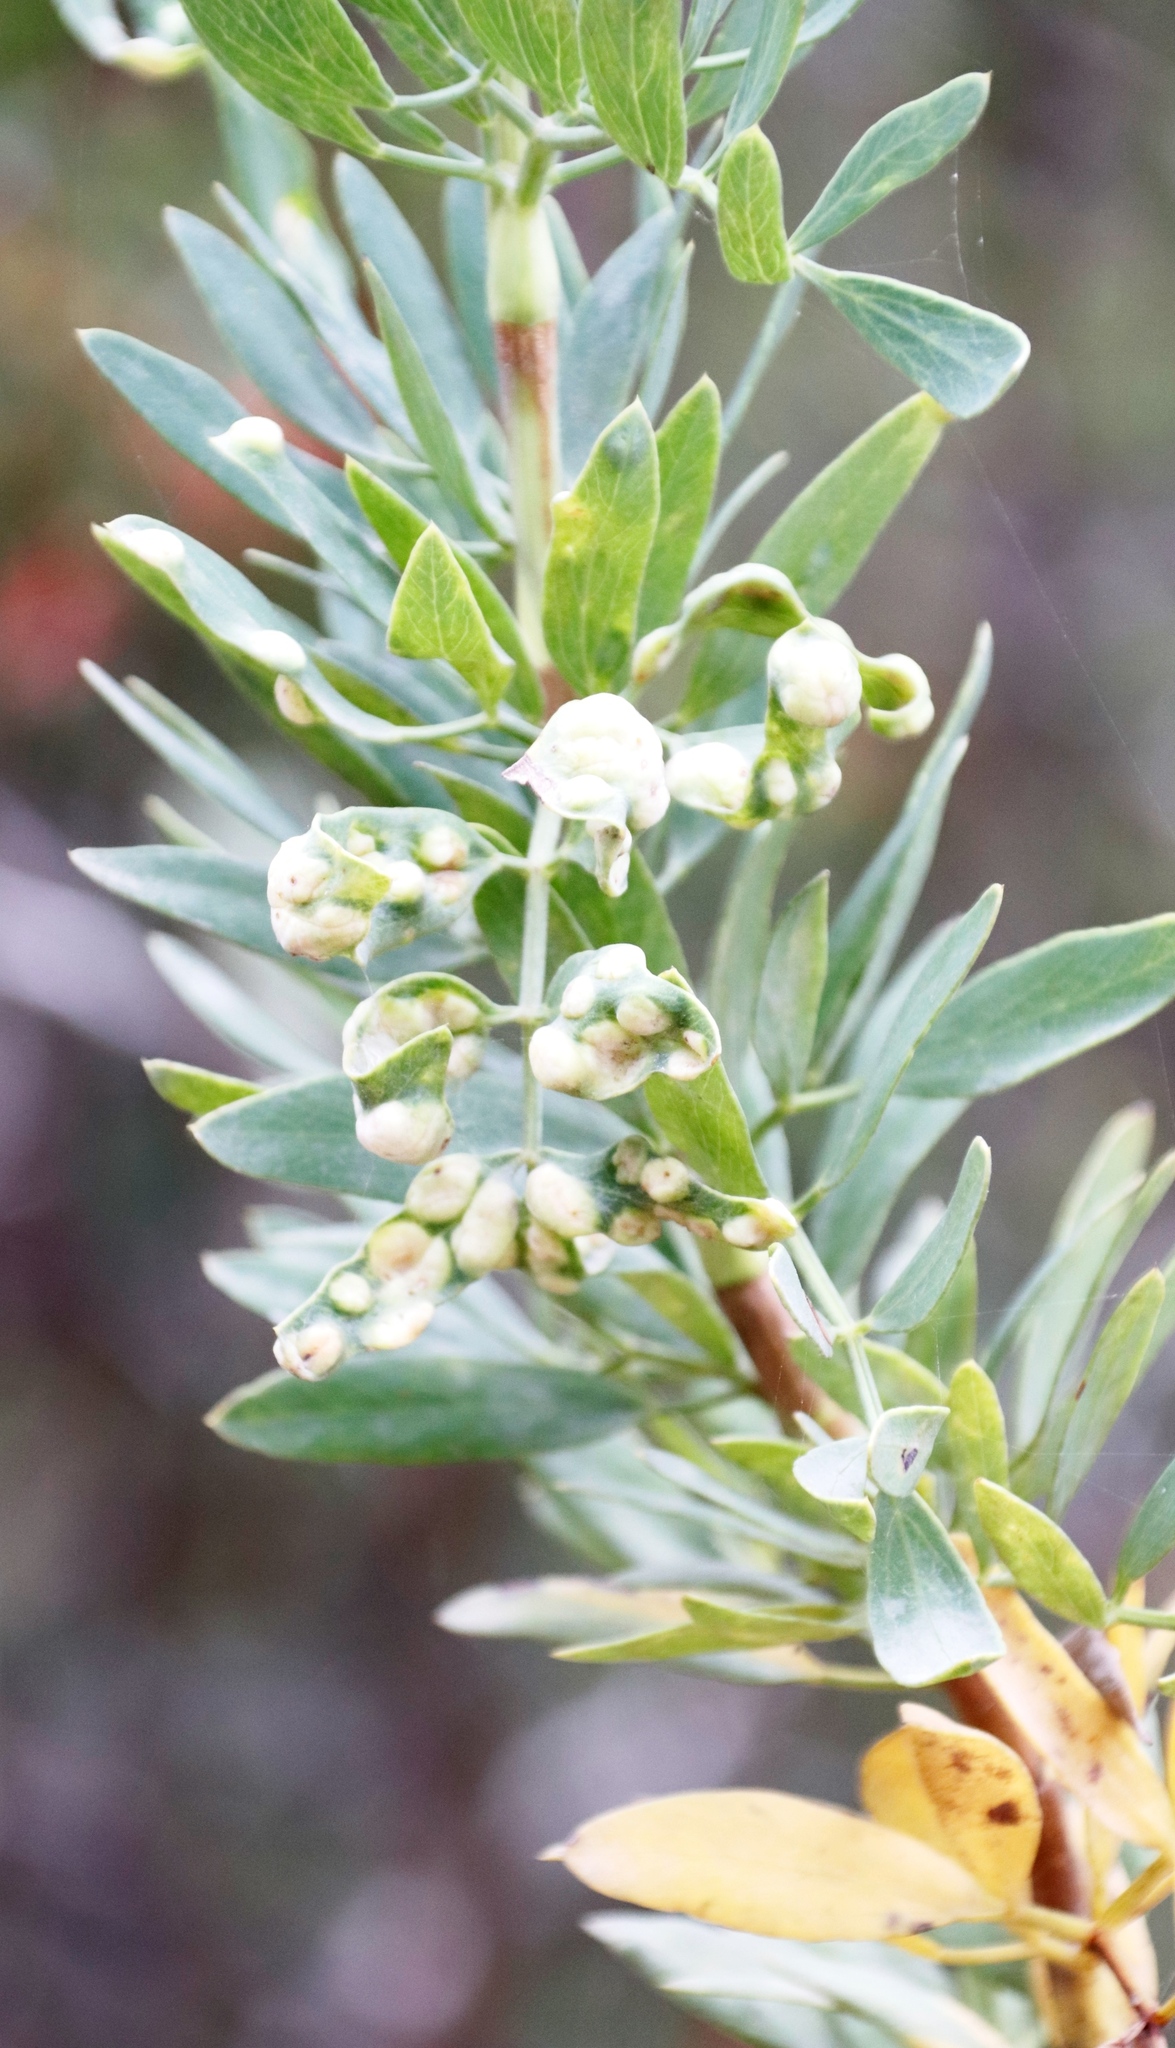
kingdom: Plantae
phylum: Tracheophyta
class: Magnoliopsida
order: Apiales
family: Apiaceae
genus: Notobubon
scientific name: Notobubon laevigatum
